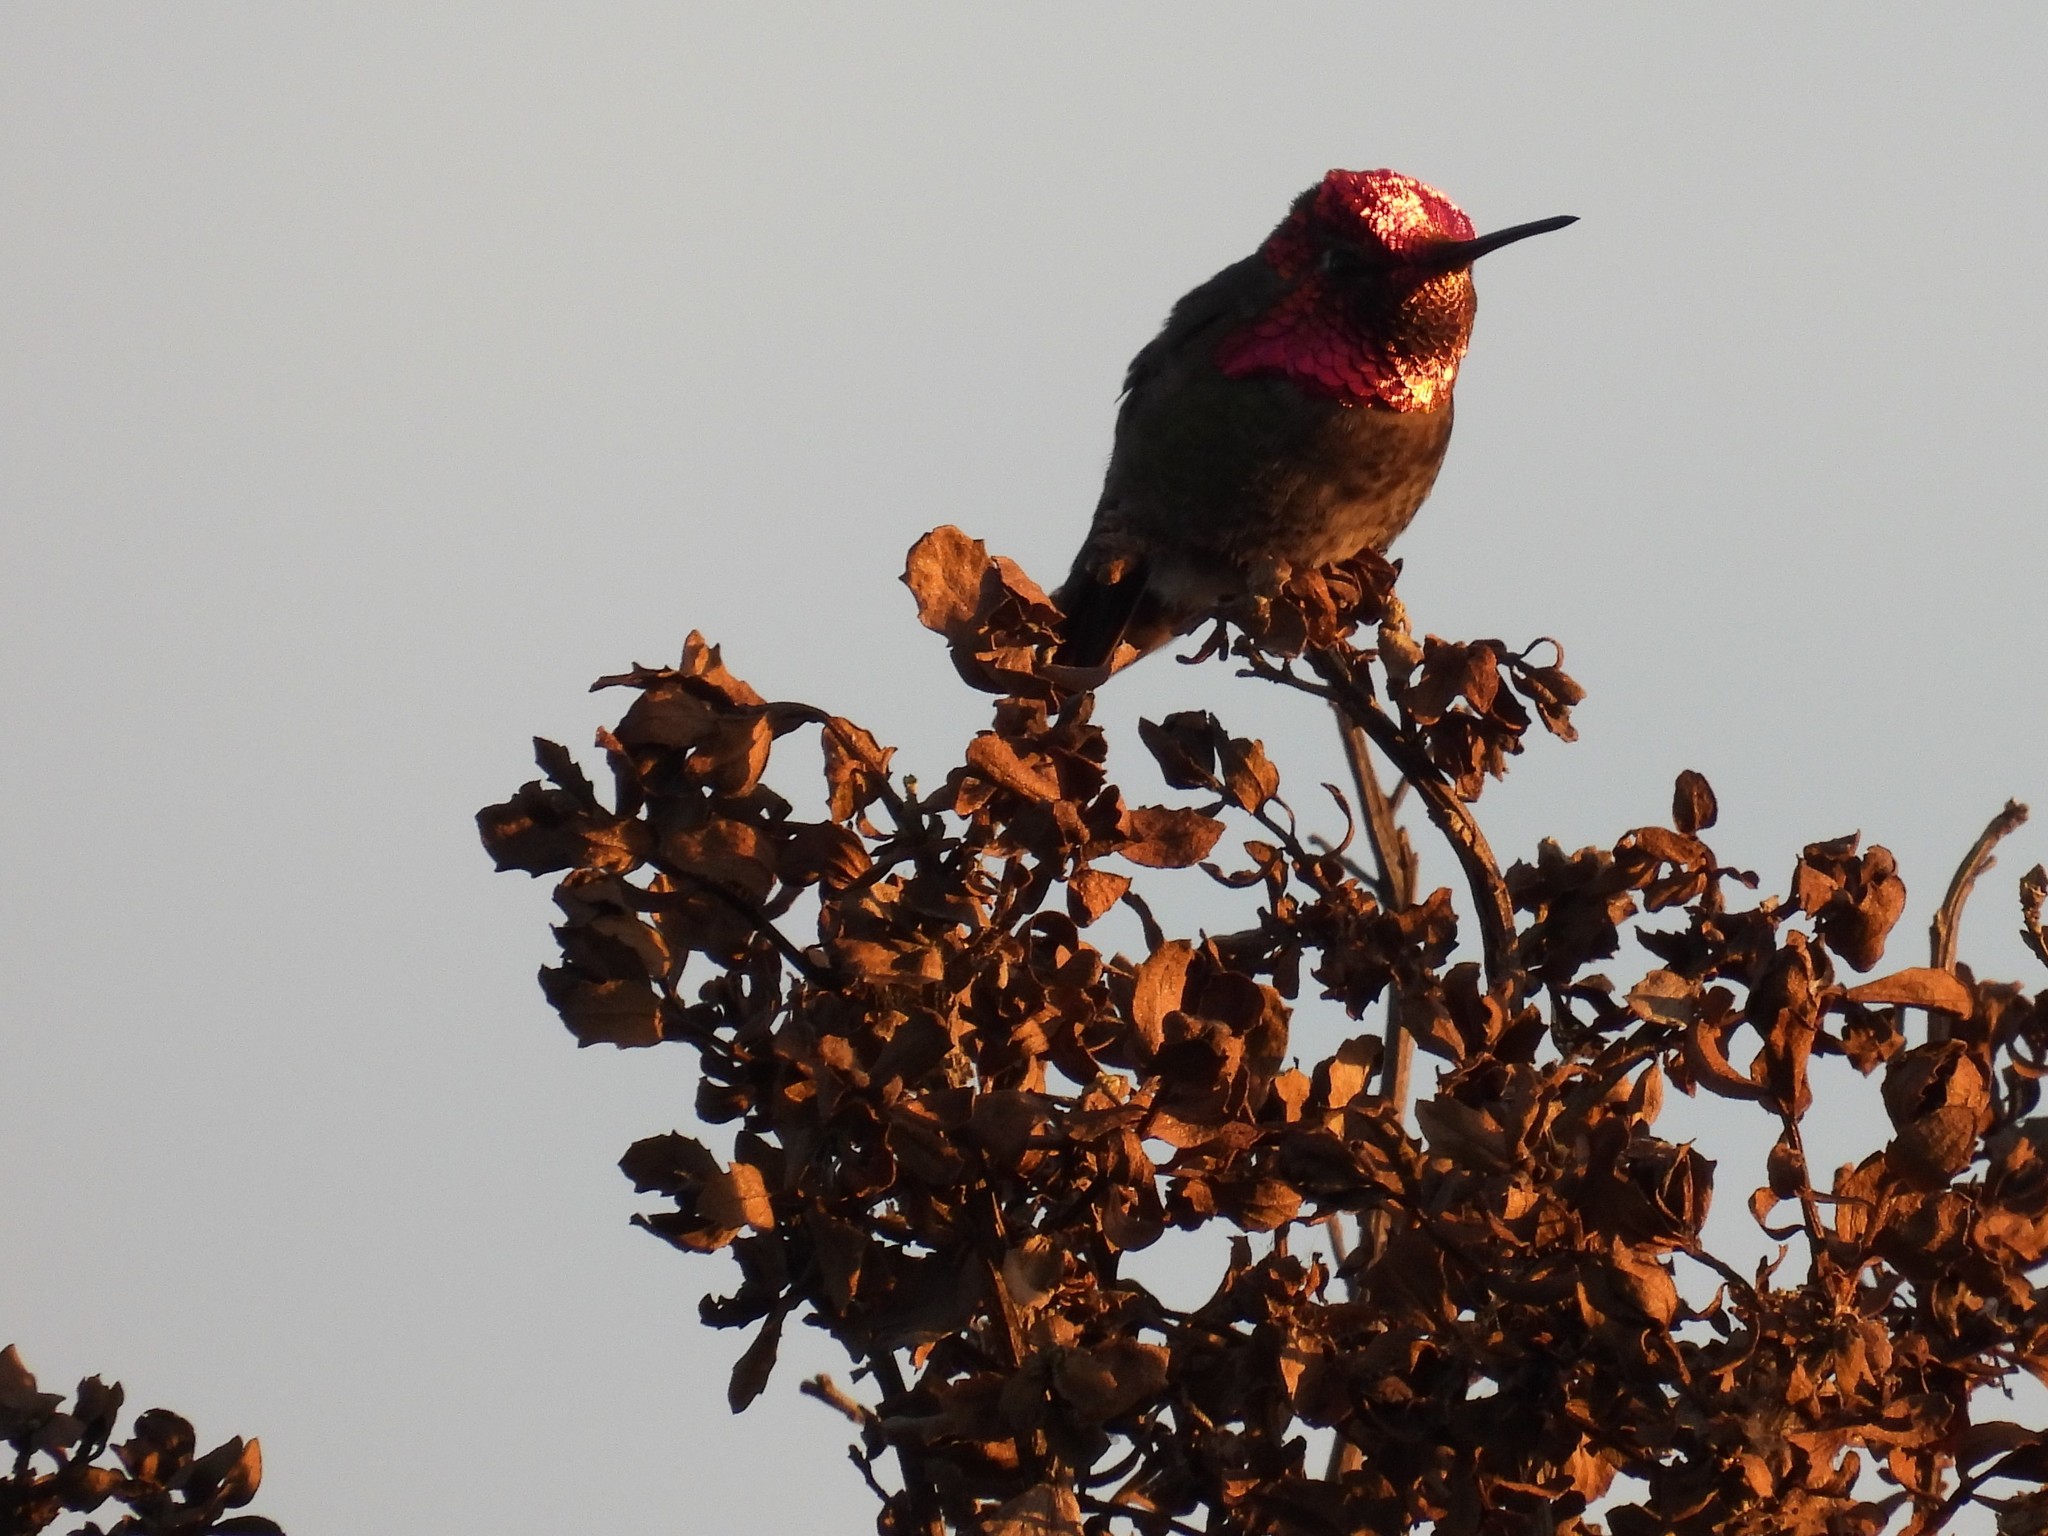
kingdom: Animalia
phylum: Chordata
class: Aves
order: Apodiformes
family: Trochilidae
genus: Calypte
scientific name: Calypte anna
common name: Anna's hummingbird
